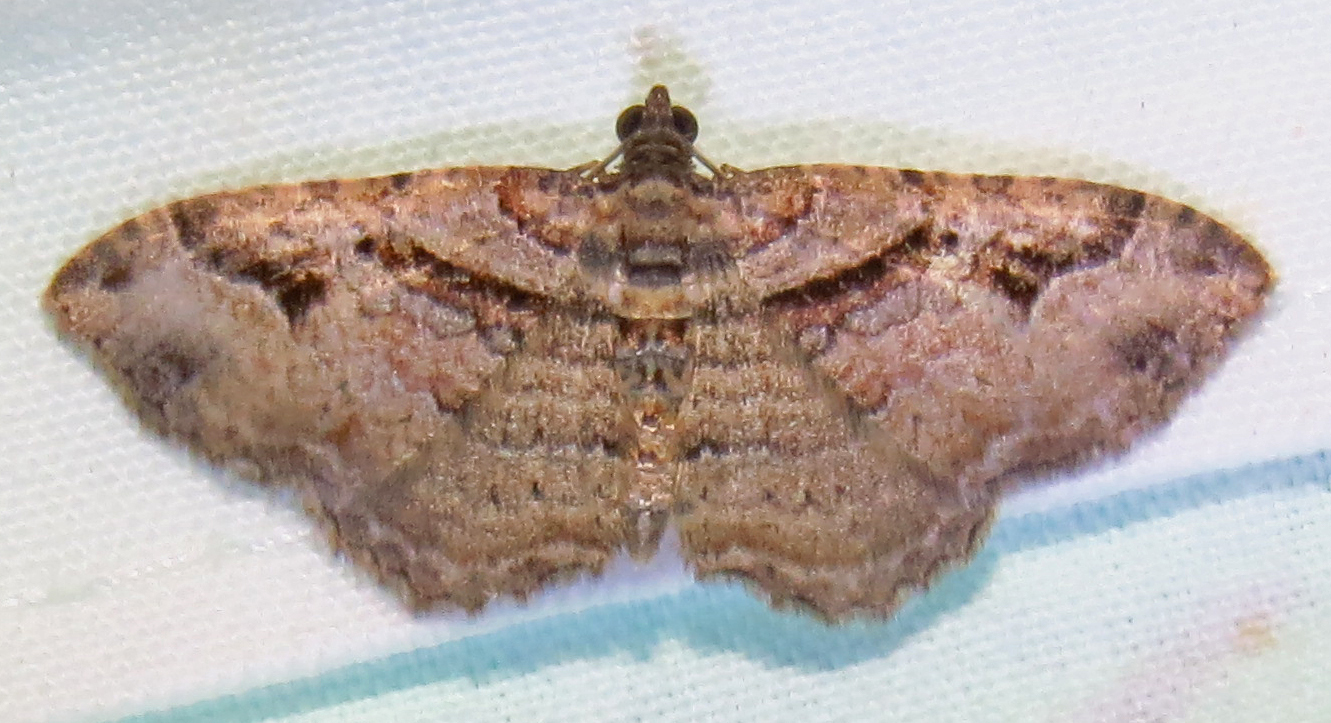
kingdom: Animalia
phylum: Arthropoda
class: Insecta
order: Lepidoptera
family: Geometridae
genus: Costaconvexa
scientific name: Costaconvexa centrostrigaria
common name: Bent-line carpet
